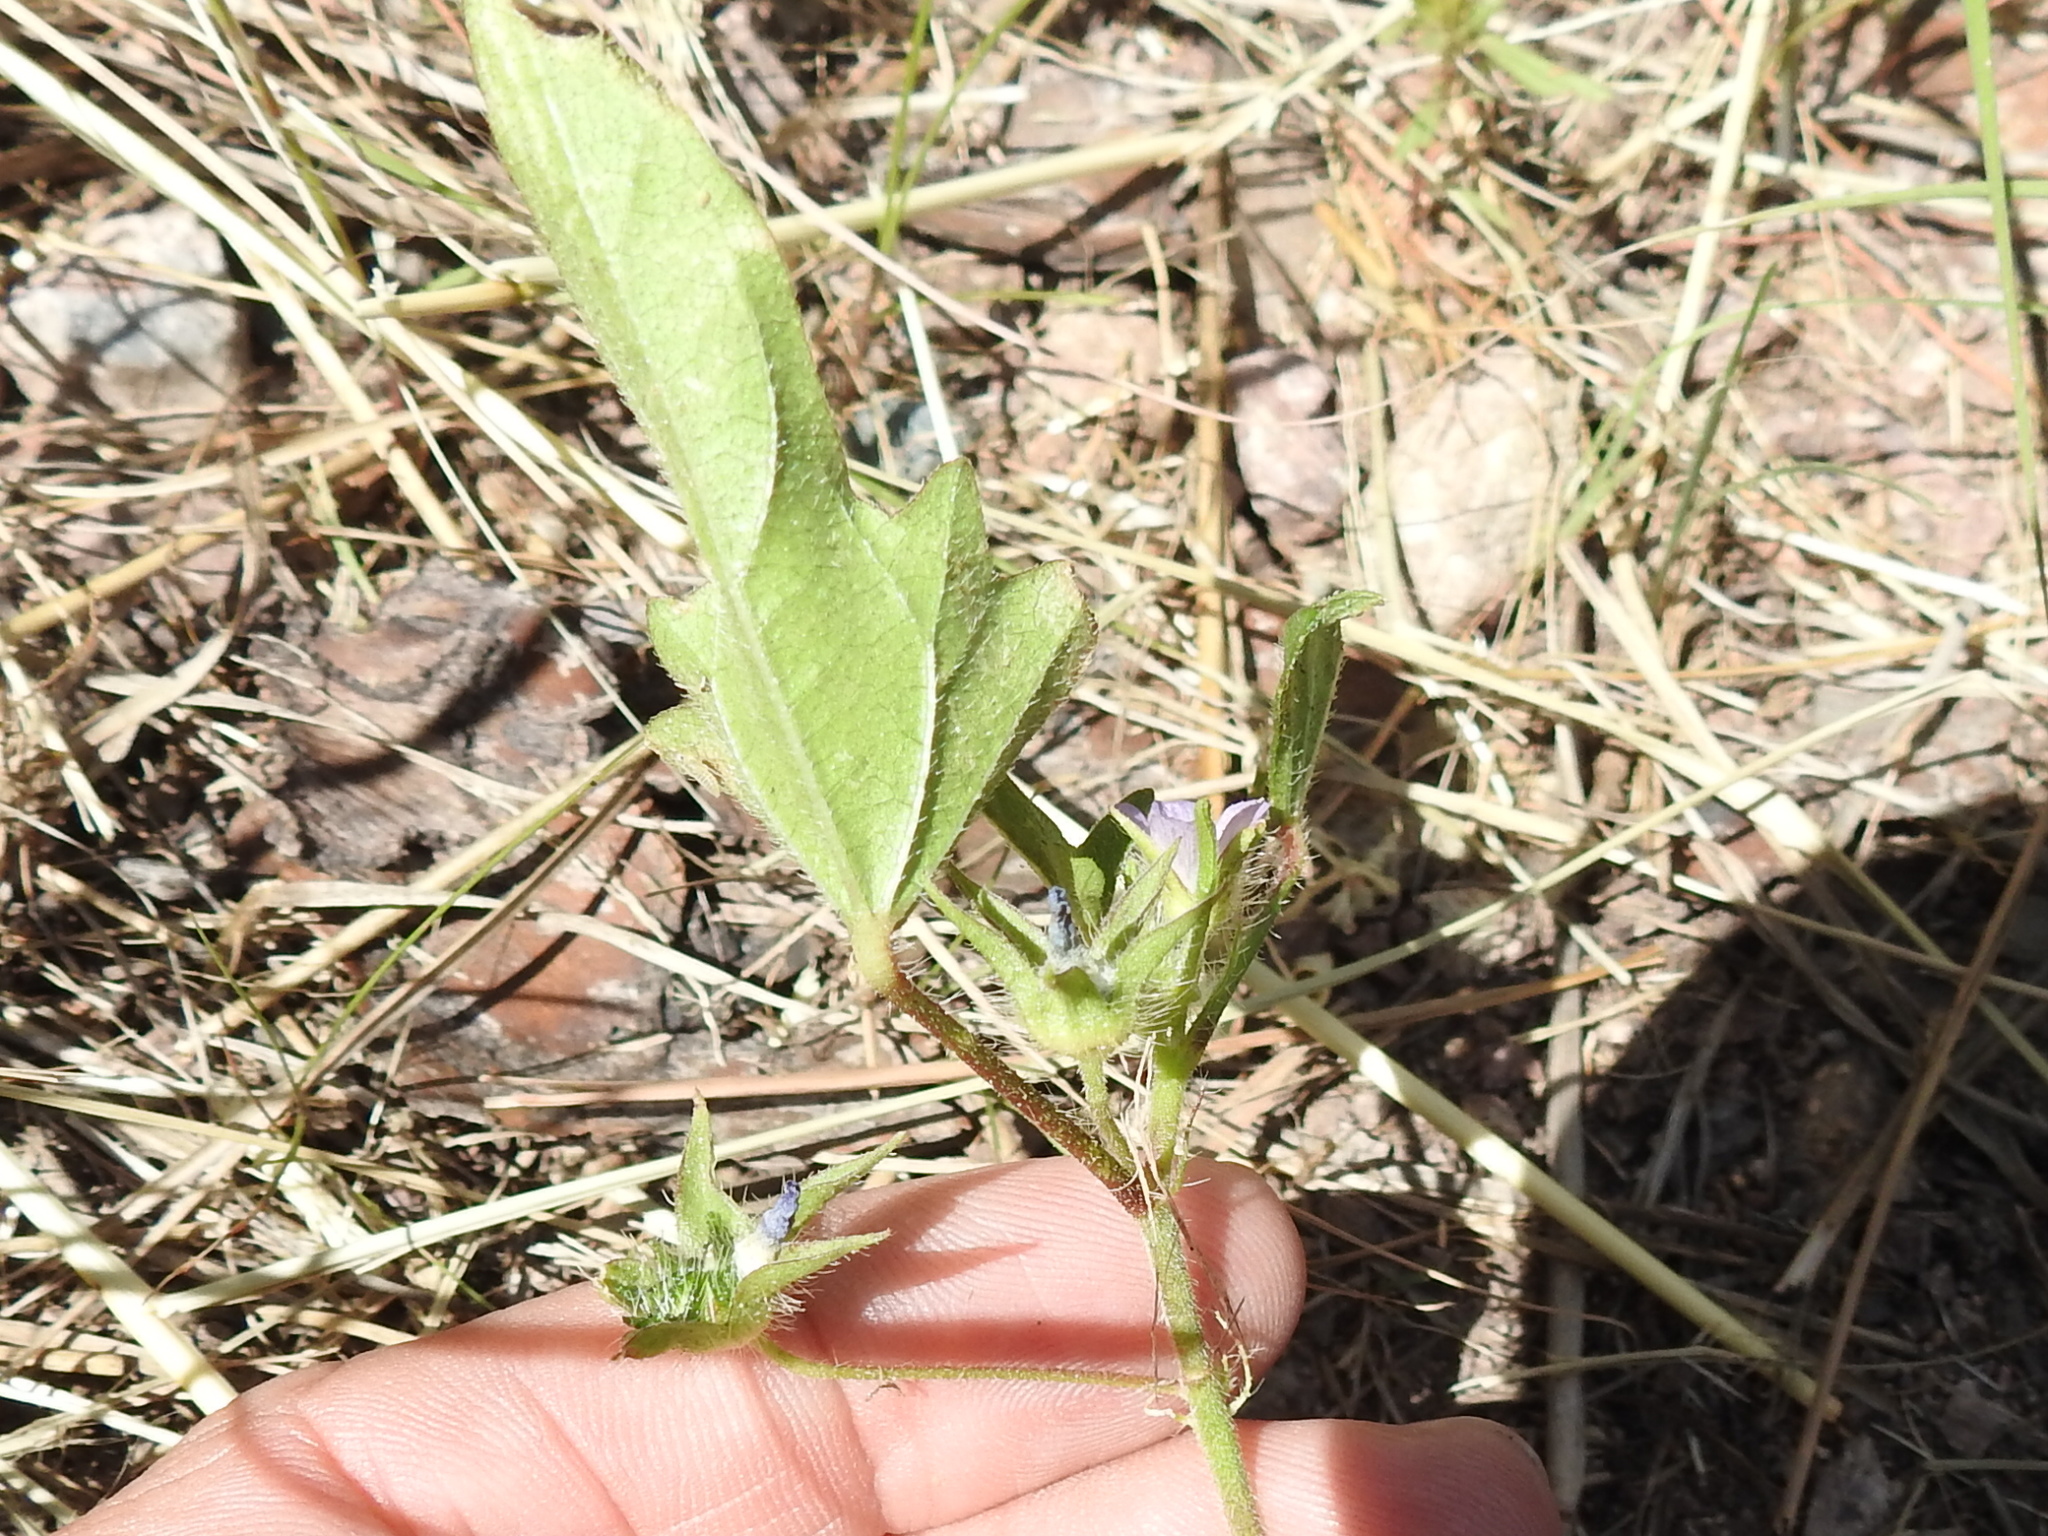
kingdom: Plantae
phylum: Tracheophyta
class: Magnoliopsida
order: Malvales
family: Malvaceae
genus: Anoda
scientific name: Anoda cristata
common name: Spurred anoda
